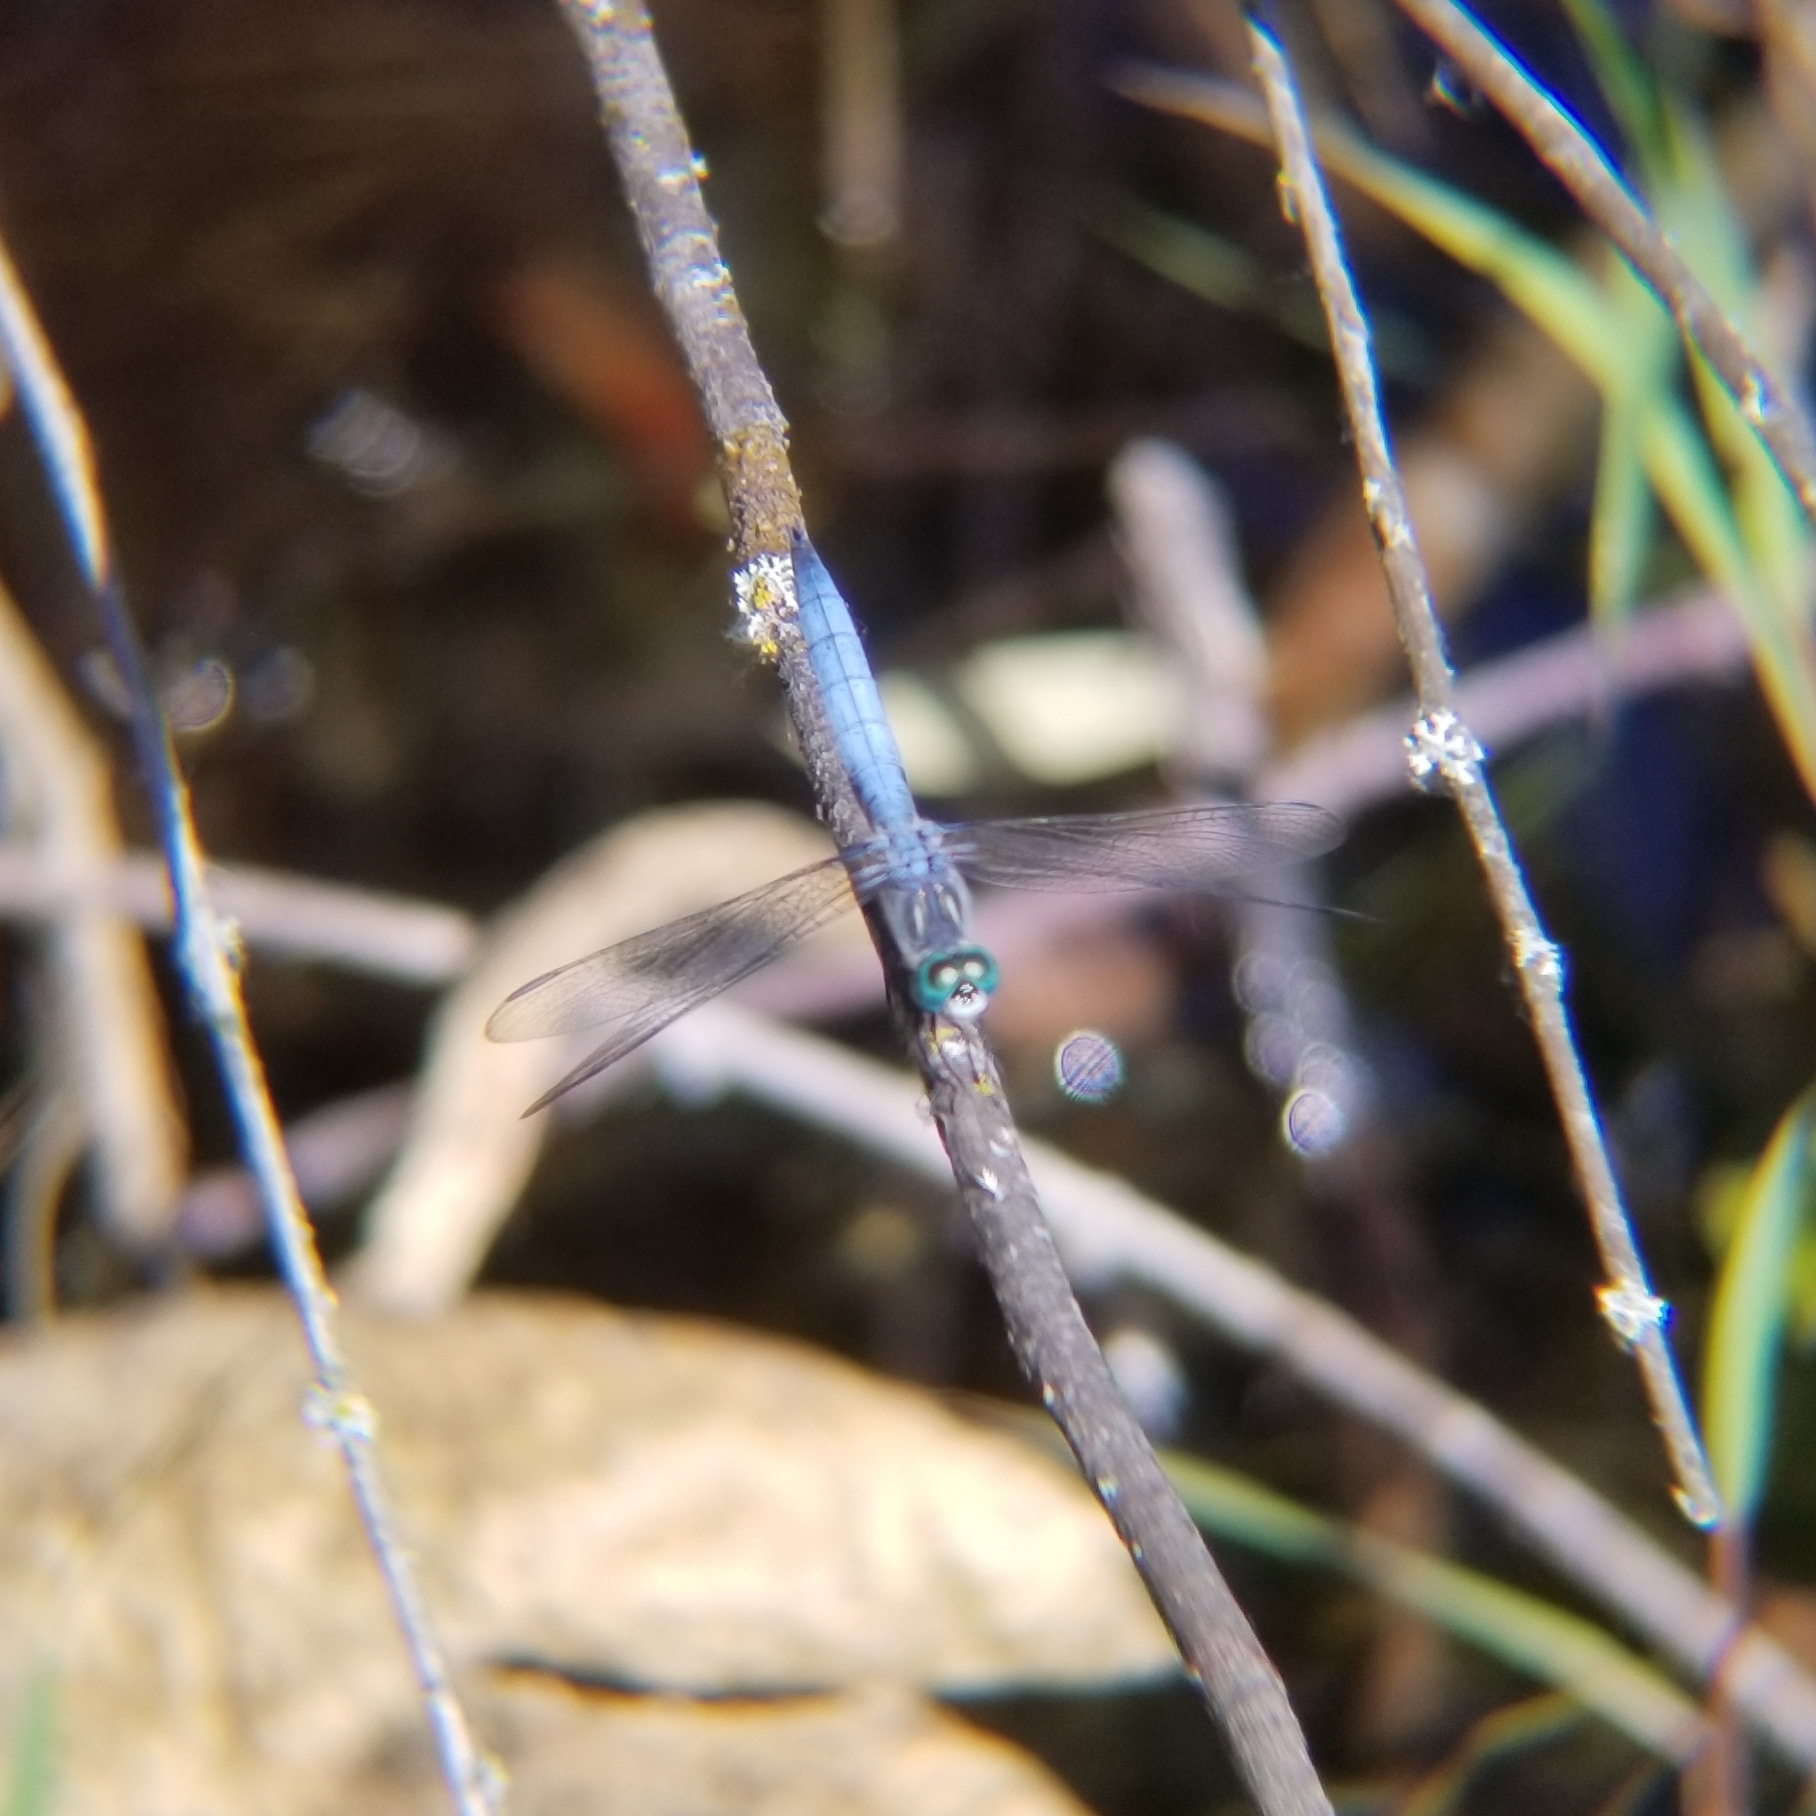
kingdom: Animalia
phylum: Arthropoda
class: Insecta
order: Odonata
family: Libellulidae
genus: Pachydiplax
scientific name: Pachydiplax longipennis
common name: Blue dasher
